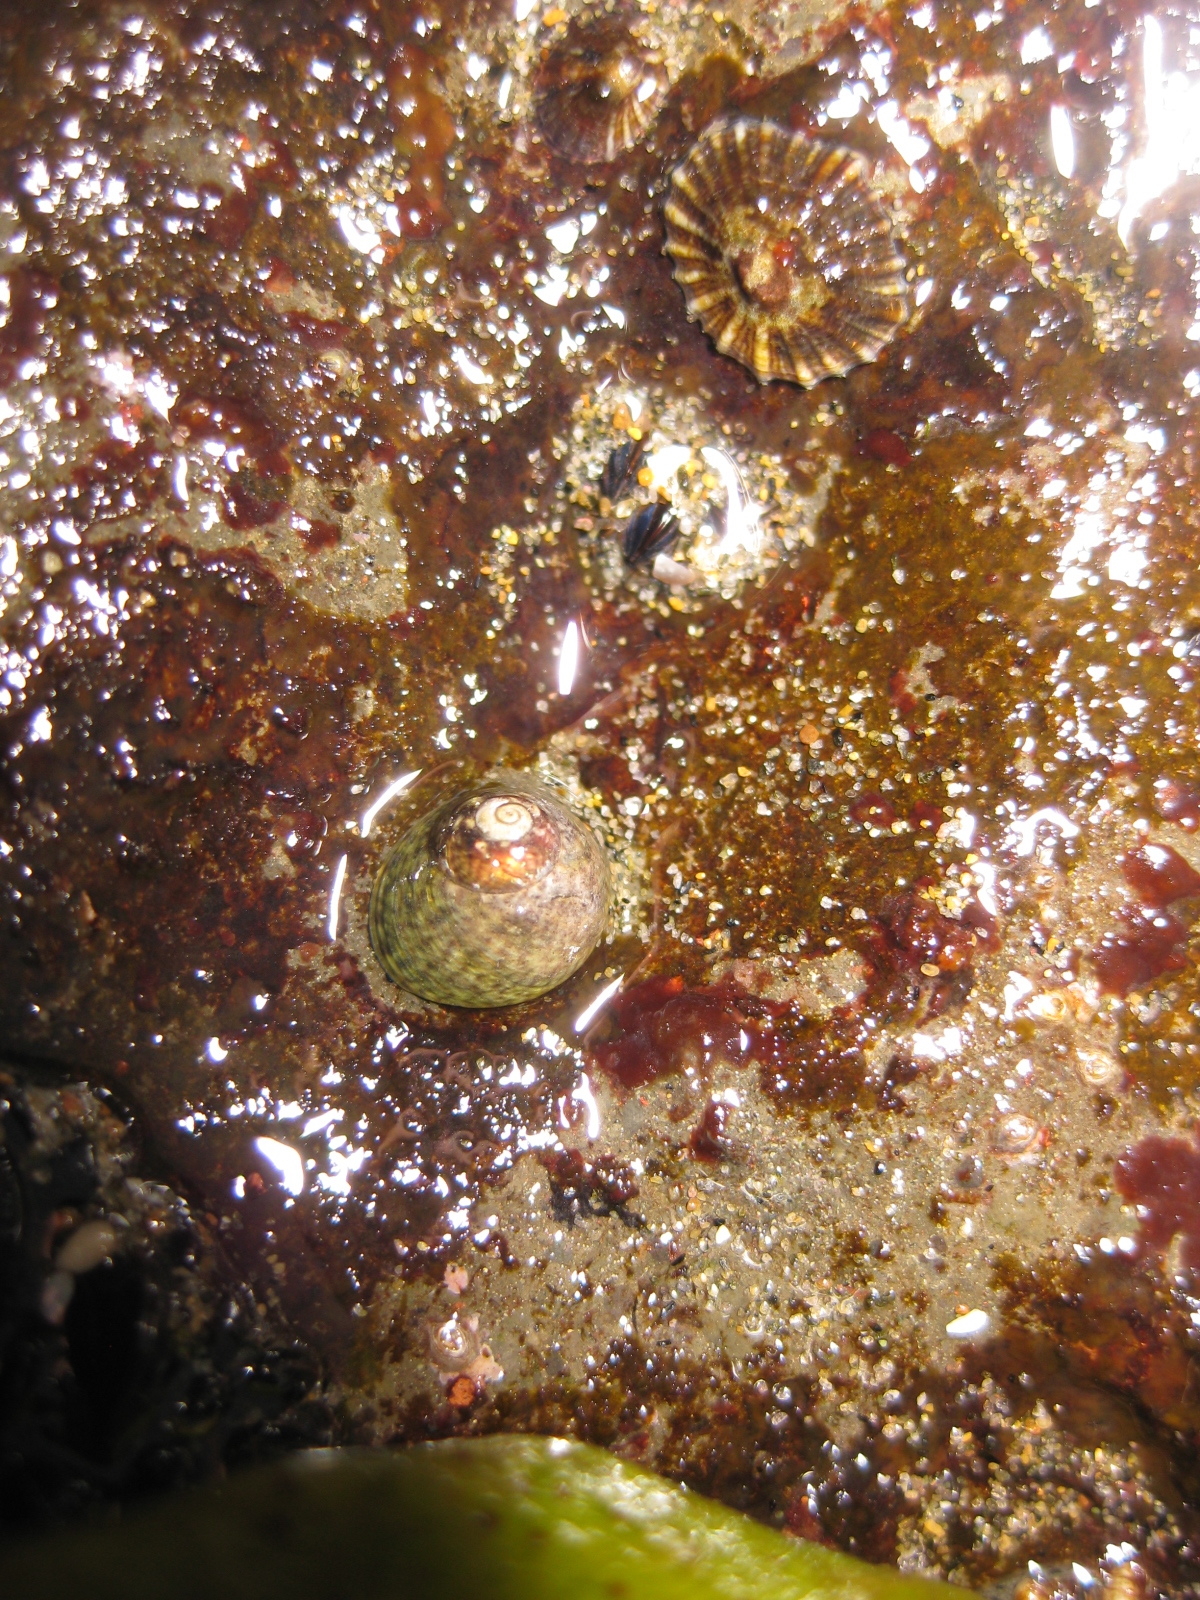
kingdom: Animalia
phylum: Mollusca
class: Gastropoda
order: Trochida
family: Trochidae
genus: Diloma
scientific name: Diloma coracinum
